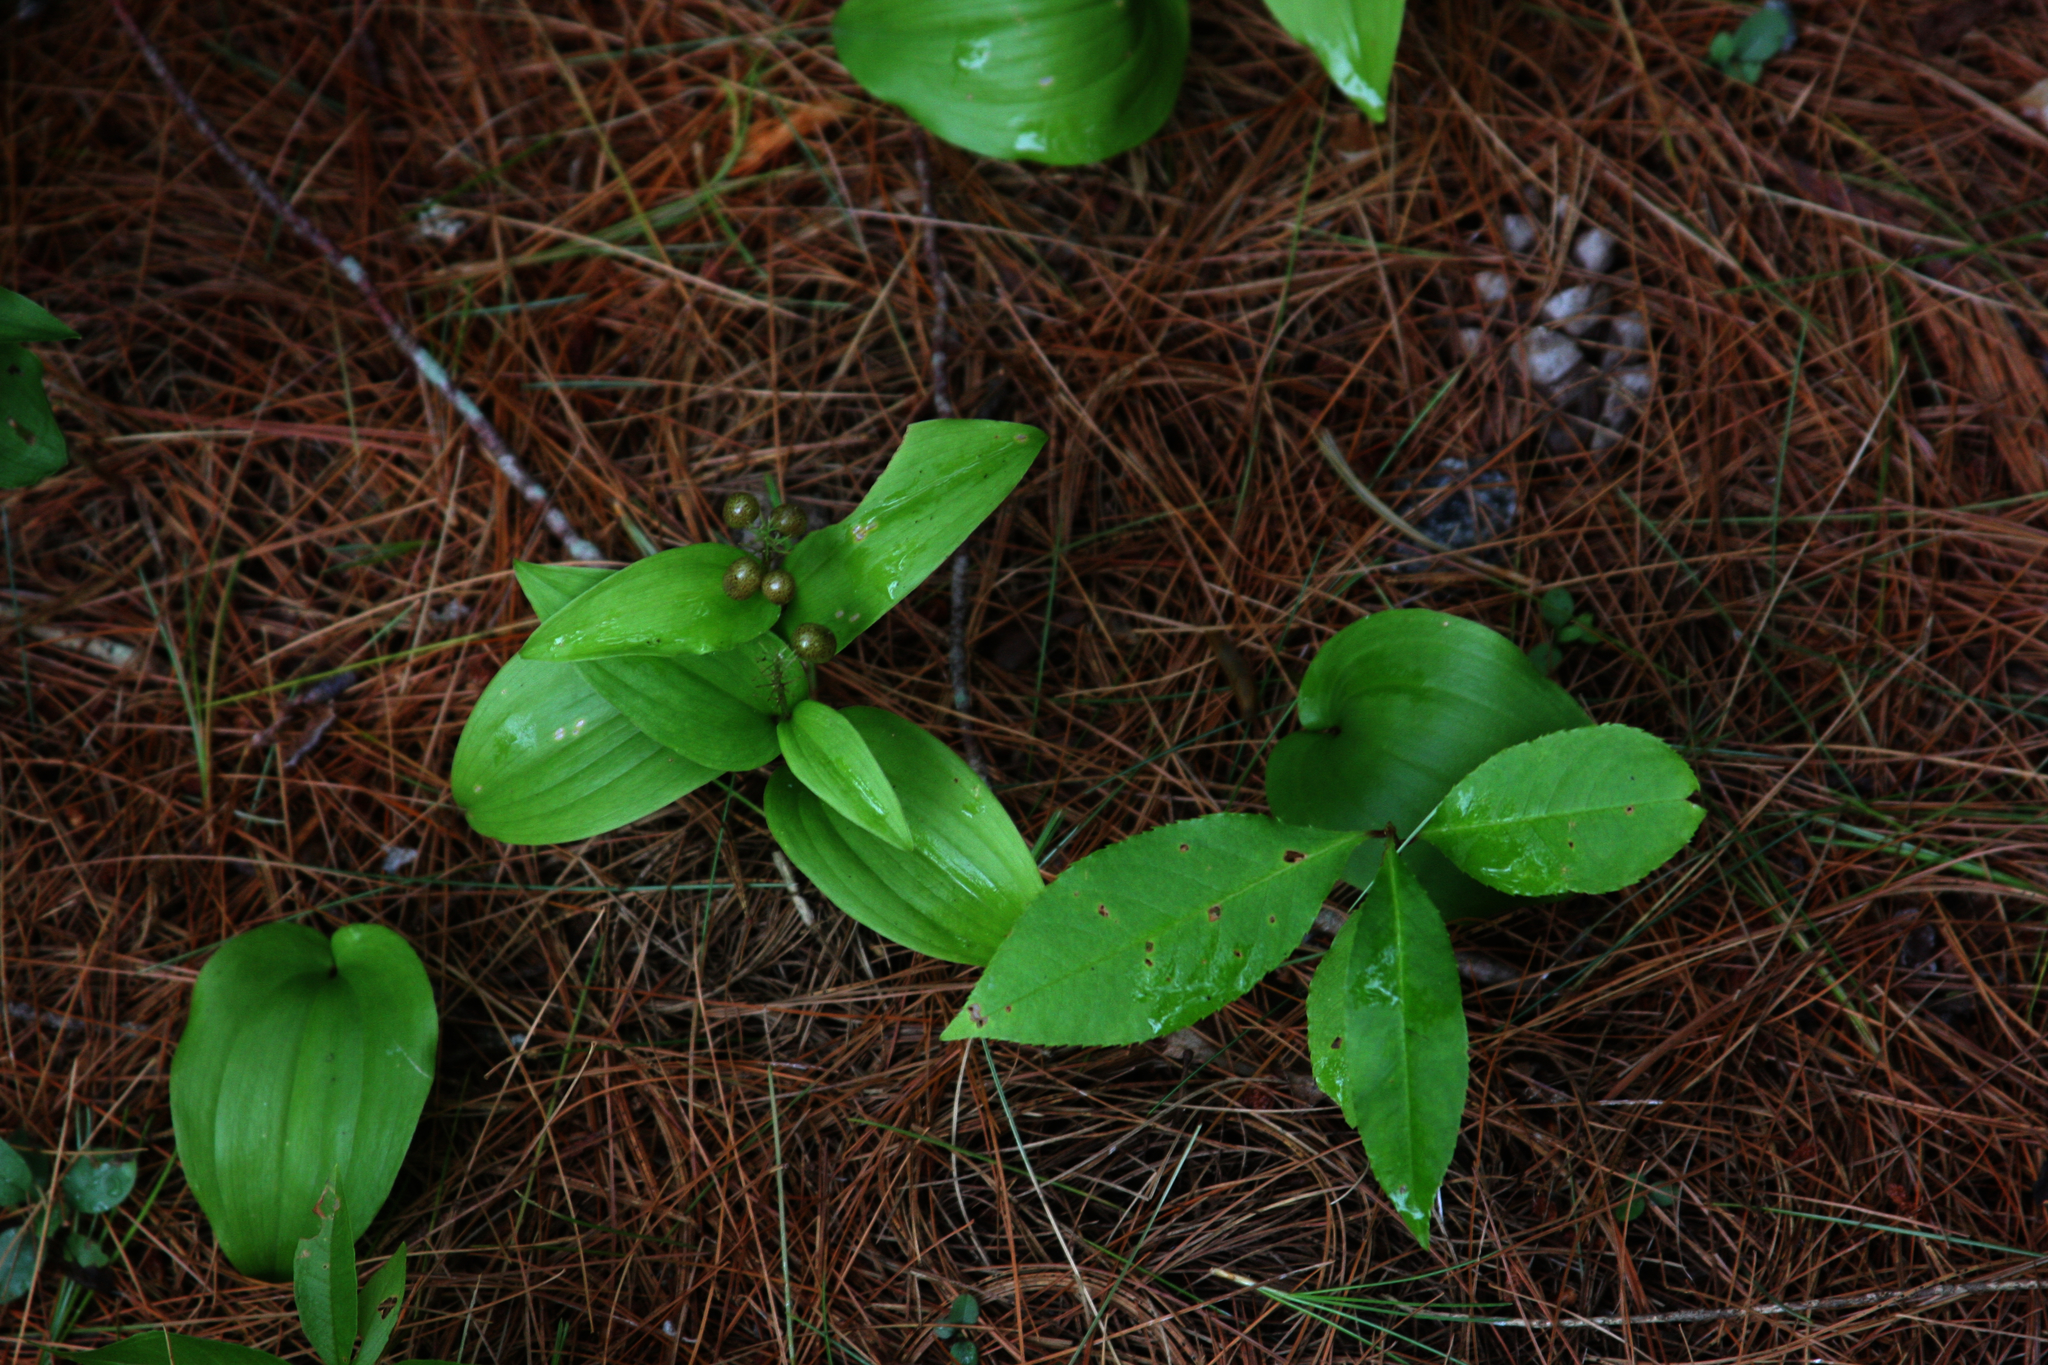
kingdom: Plantae
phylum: Tracheophyta
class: Liliopsida
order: Asparagales
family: Asparagaceae
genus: Maianthemum
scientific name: Maianthemum canadense
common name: False lily-of-the-valley
